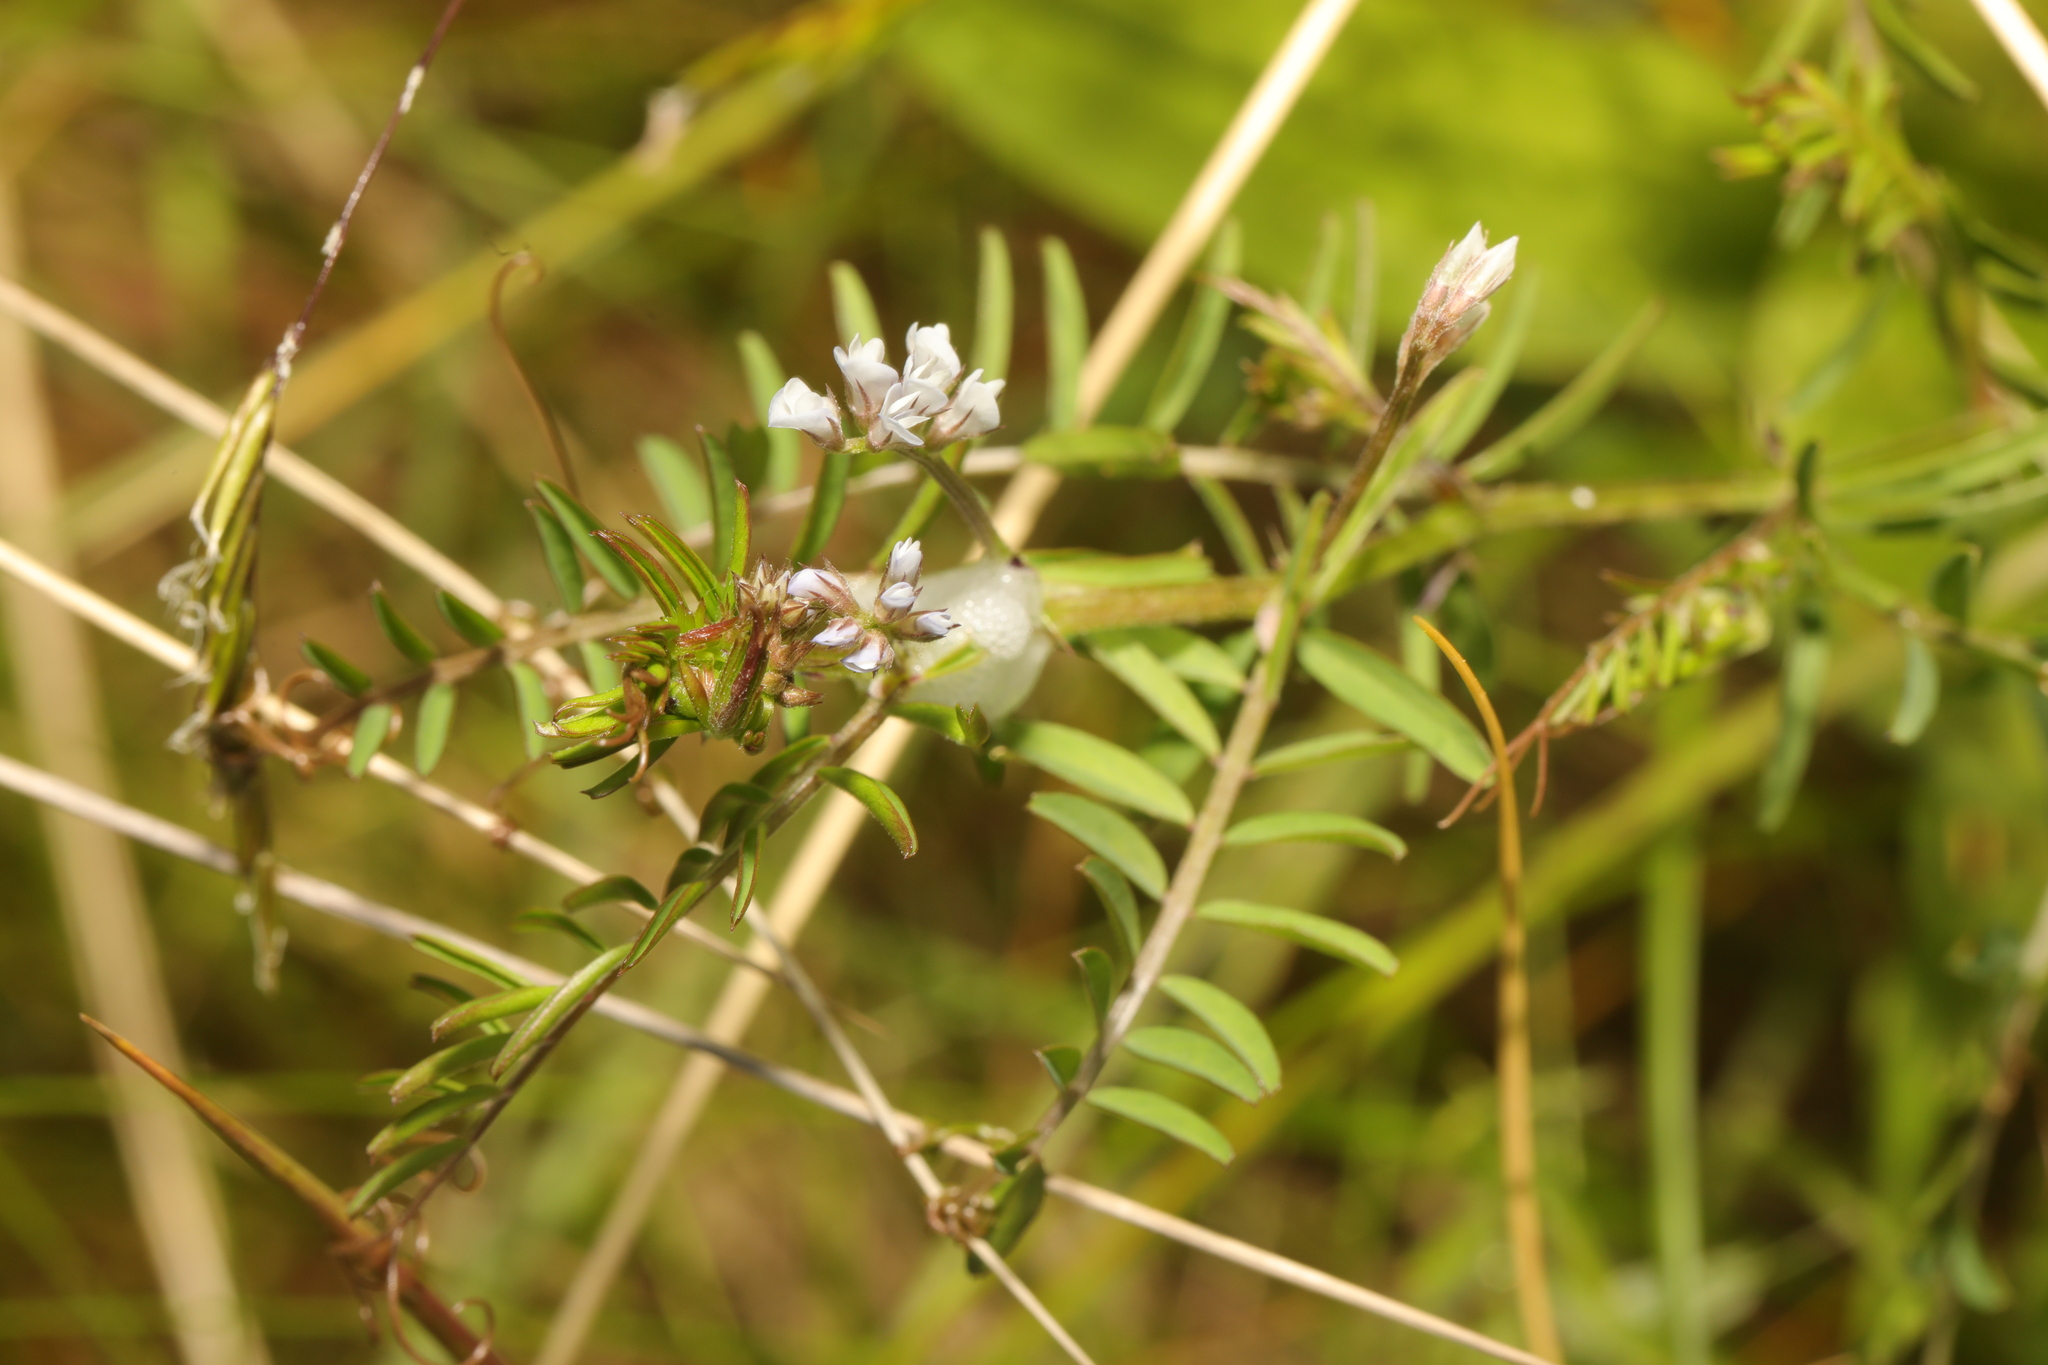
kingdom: Plantae
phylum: Tracheophyta
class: Magnoliopsida
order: Fabales
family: Fabaceae
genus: Vicia
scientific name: Vicia hirsuta
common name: Tiny vetch
